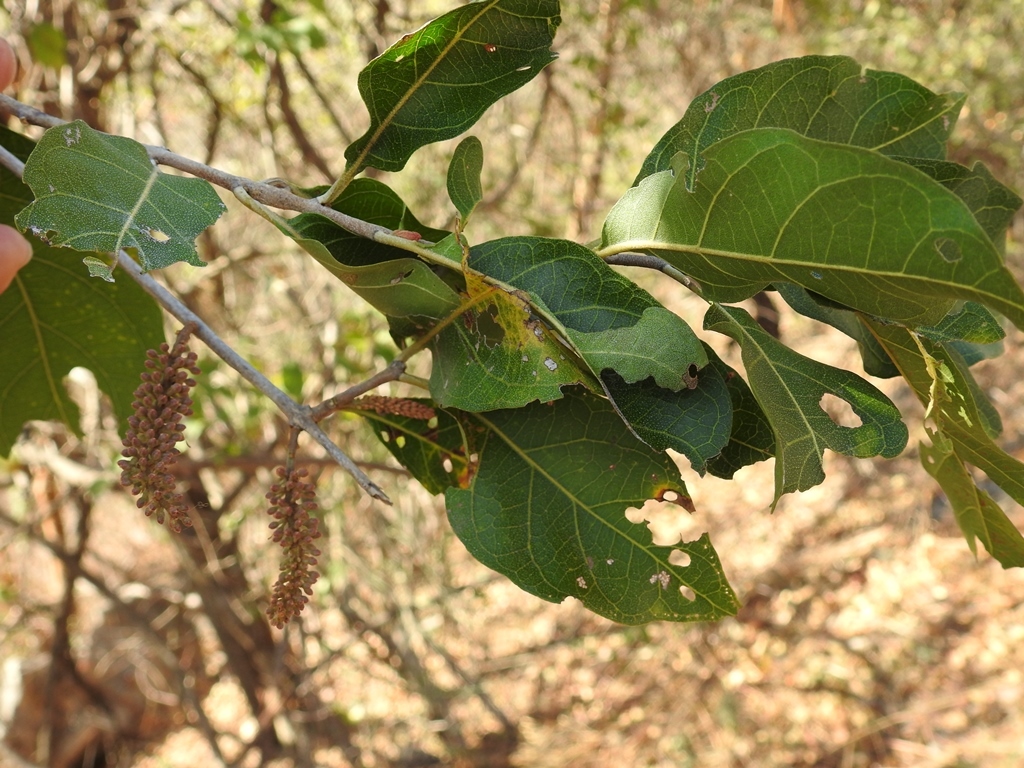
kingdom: Plantae
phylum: Tracheophyta
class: Magnoliopsida
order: Myrtales
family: Combretaceae
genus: Combretum
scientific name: Combretum fruticosum
